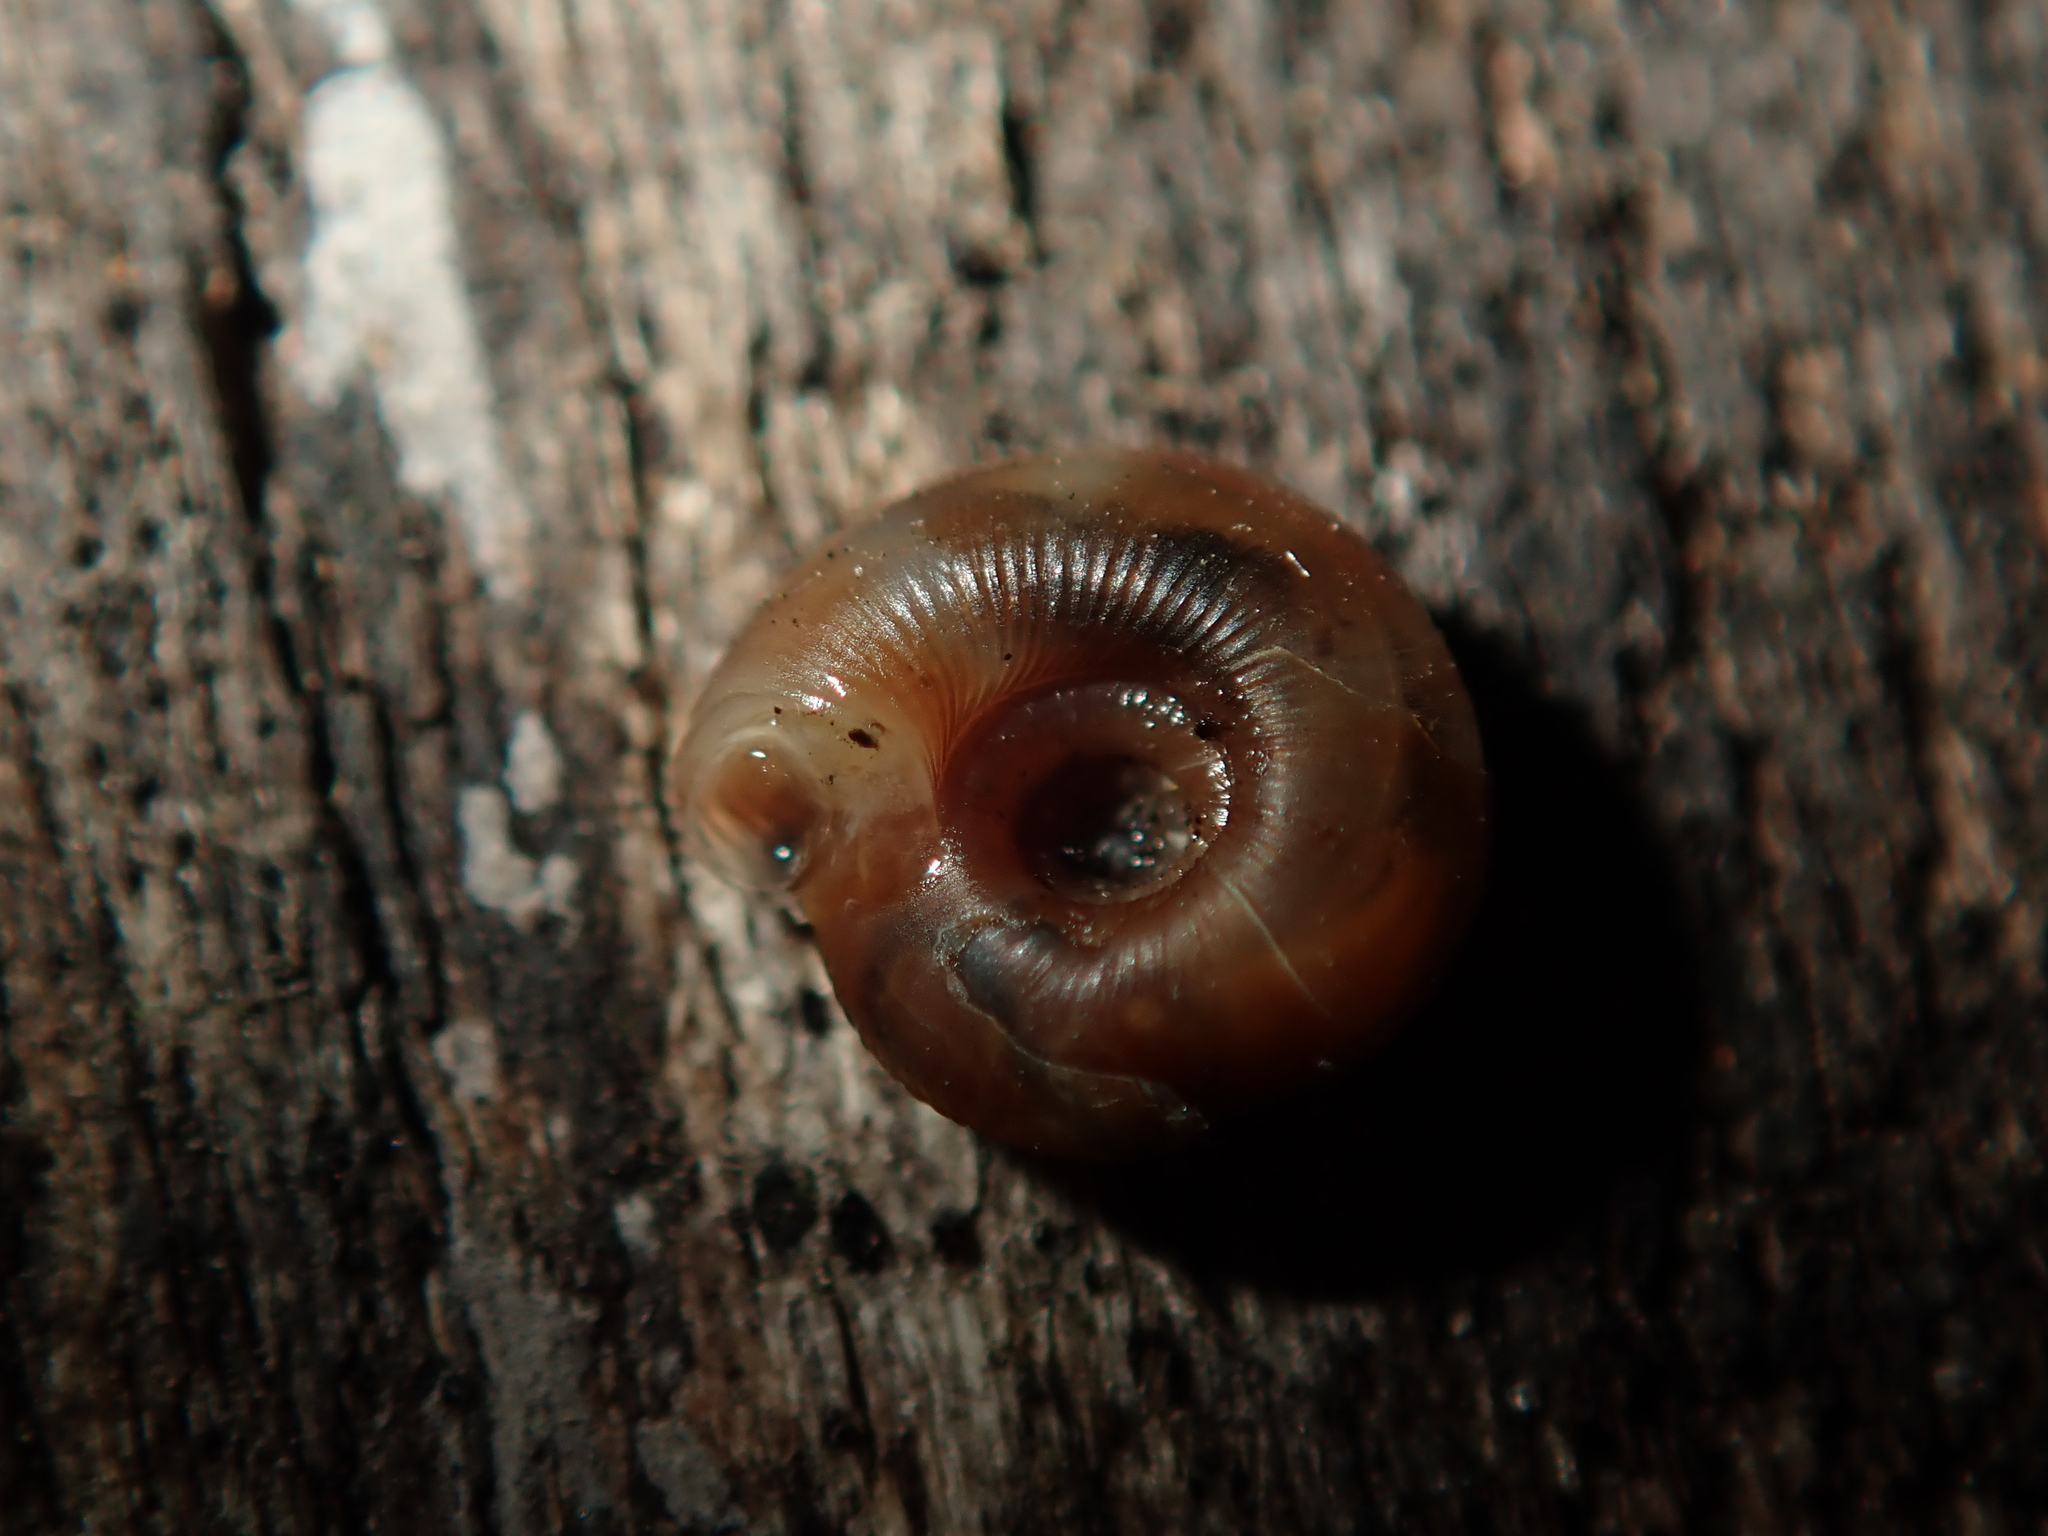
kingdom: Animalia
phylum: Mollusca
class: Gastropoda
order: Stylommatophora
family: Discidae
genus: Discus
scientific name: Discus rotundatus
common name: Rounded snail
